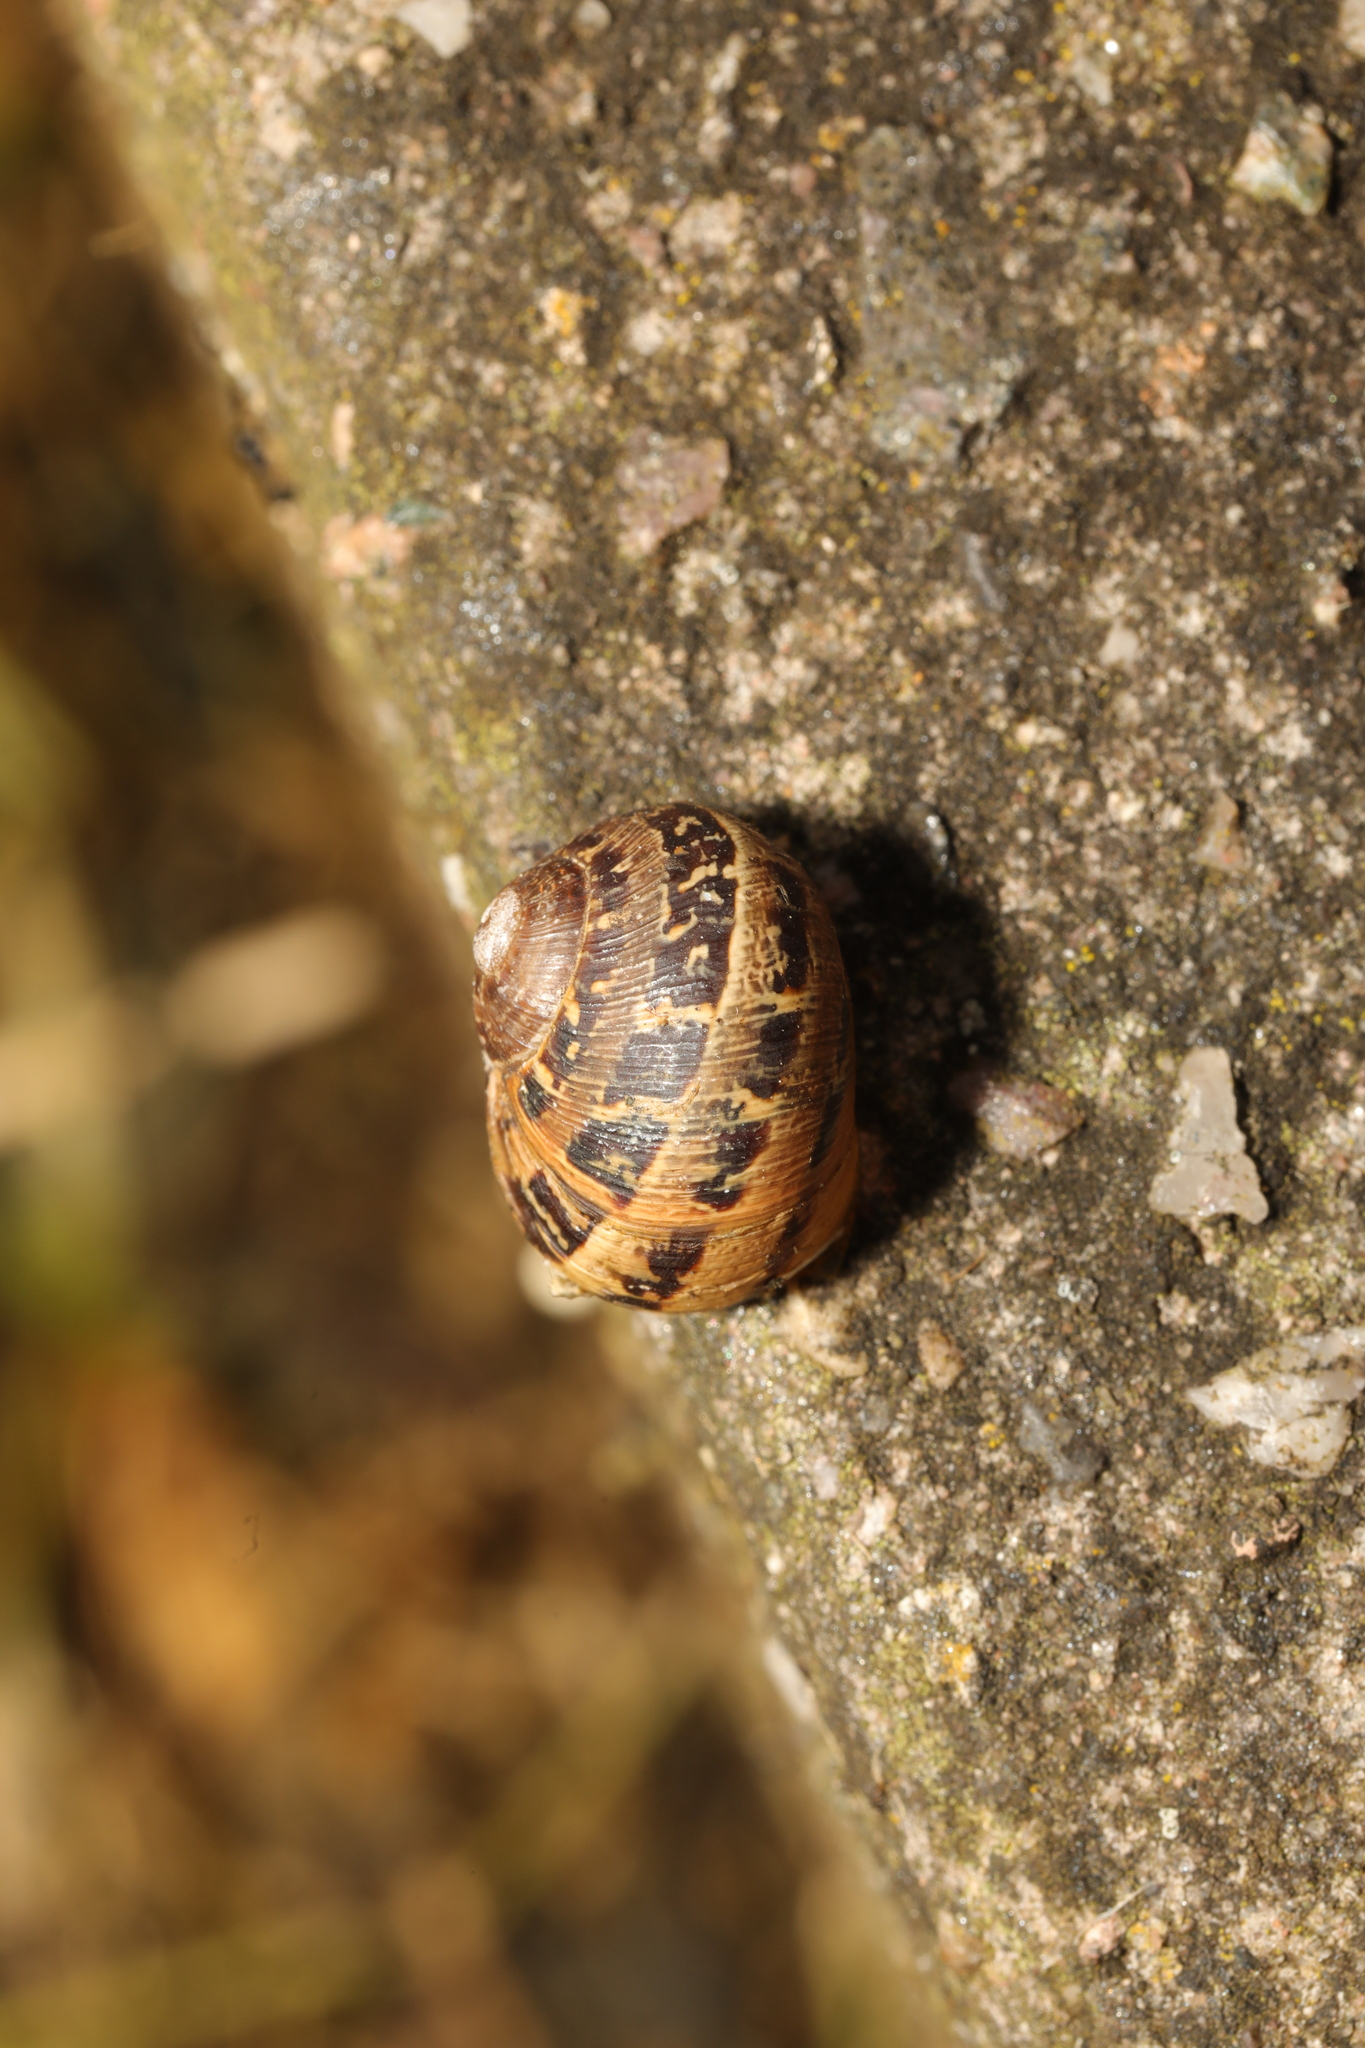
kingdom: Animalia
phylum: Mollusca
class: Gastropoda
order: Stylommatophora
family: Helicidae
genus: Cornu
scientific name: Cornu aspersum
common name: Brown garden snail
